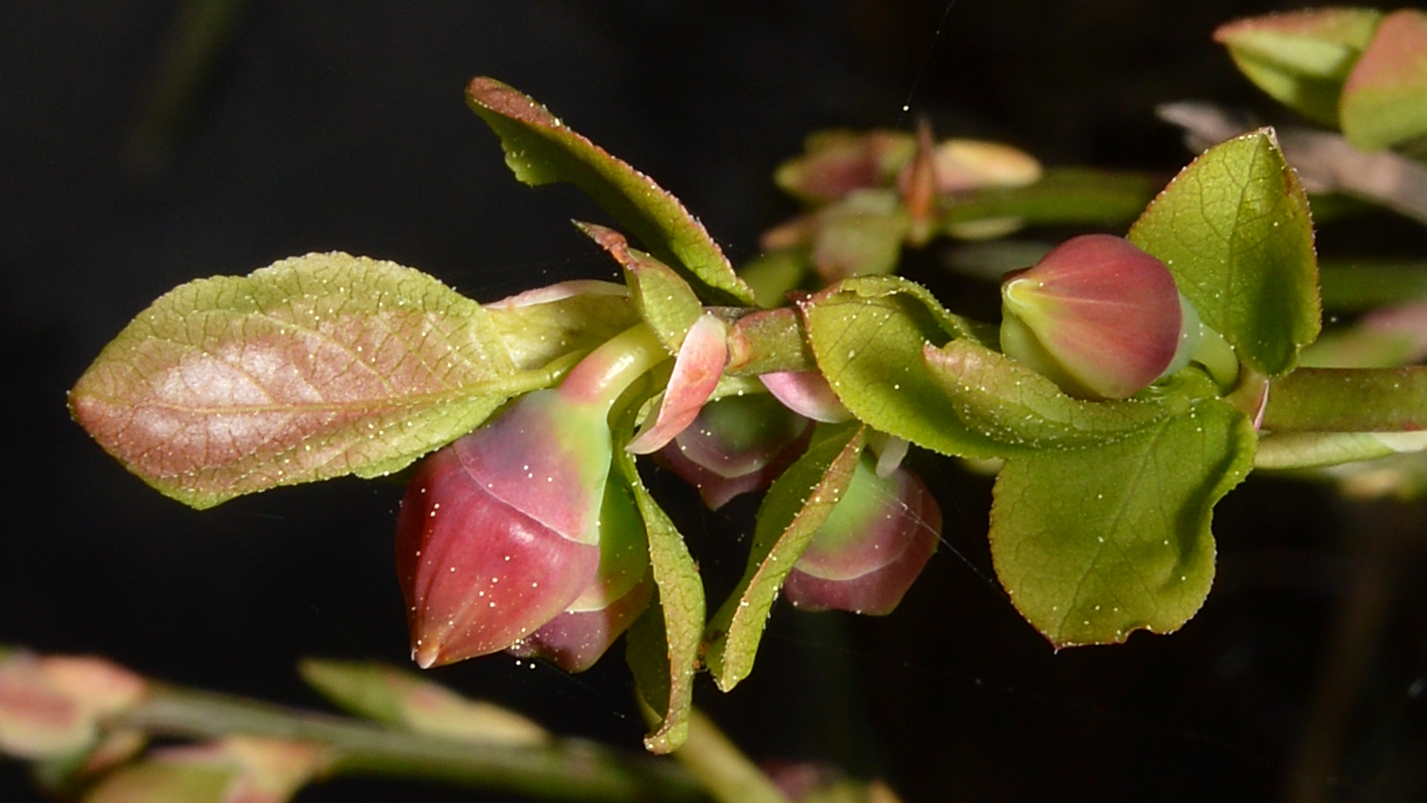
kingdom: Plantae
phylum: Tracheophyta
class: Magnoliopsida
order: Ericales
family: Ericaceae
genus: Vaccinium
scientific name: Vaccinium myrtillus
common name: Bilberry
